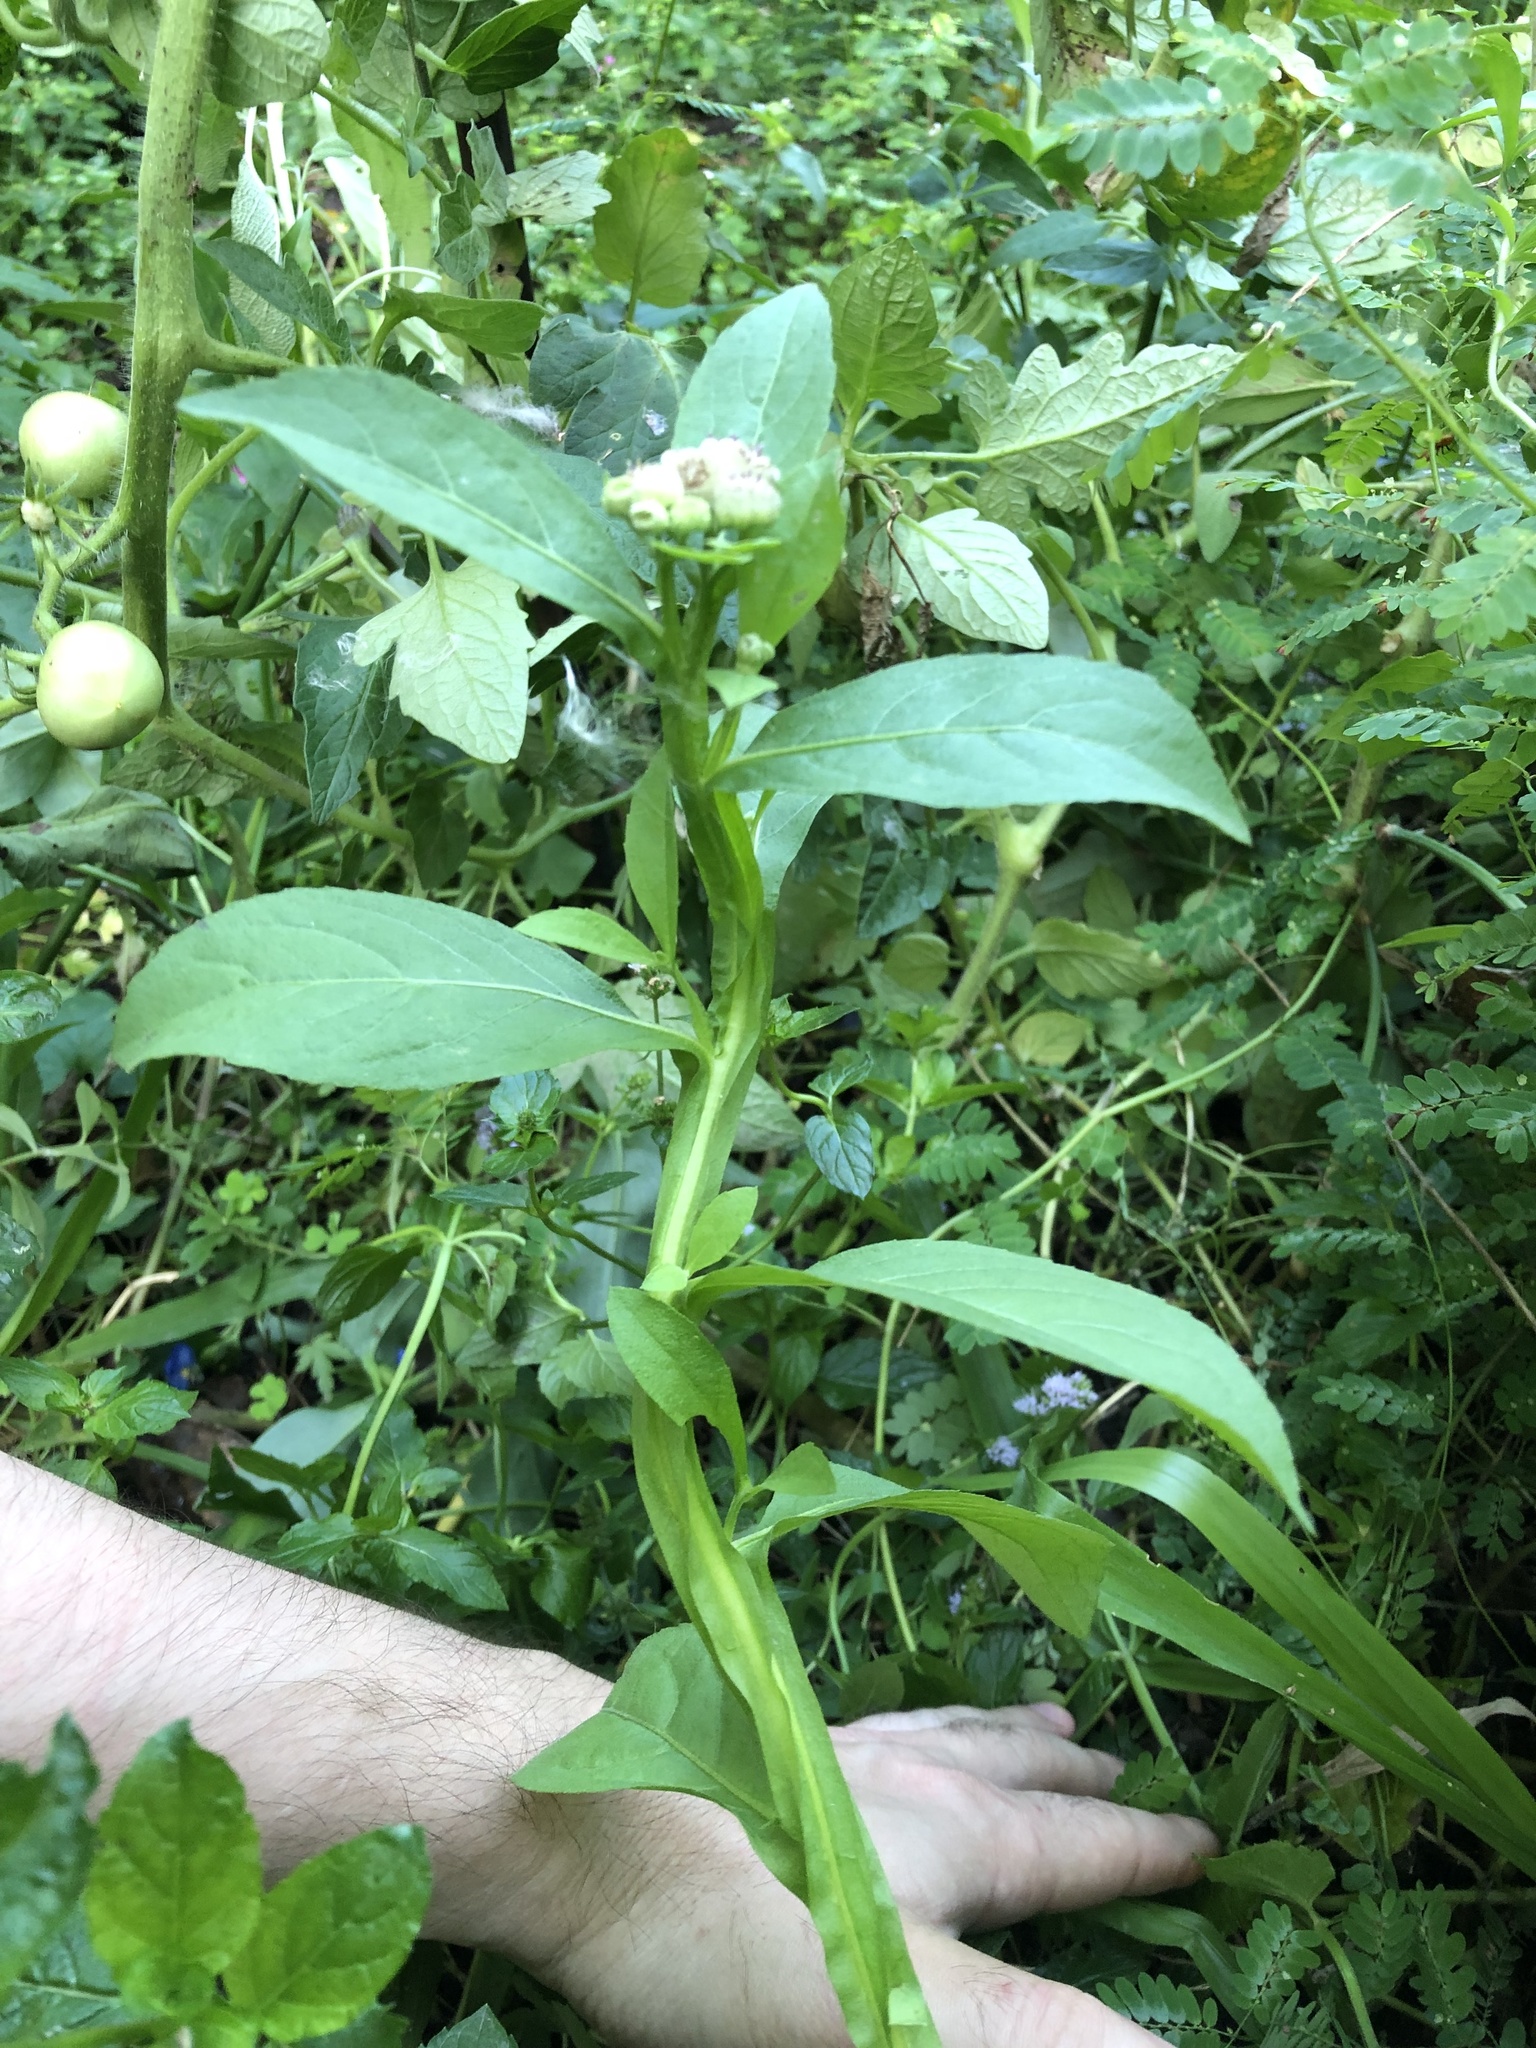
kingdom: Plantae
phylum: Tracheophyta
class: Magnoliopsida
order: Asterales
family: Asteraceae
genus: Pluchea
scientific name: Pluchea sagittalis
